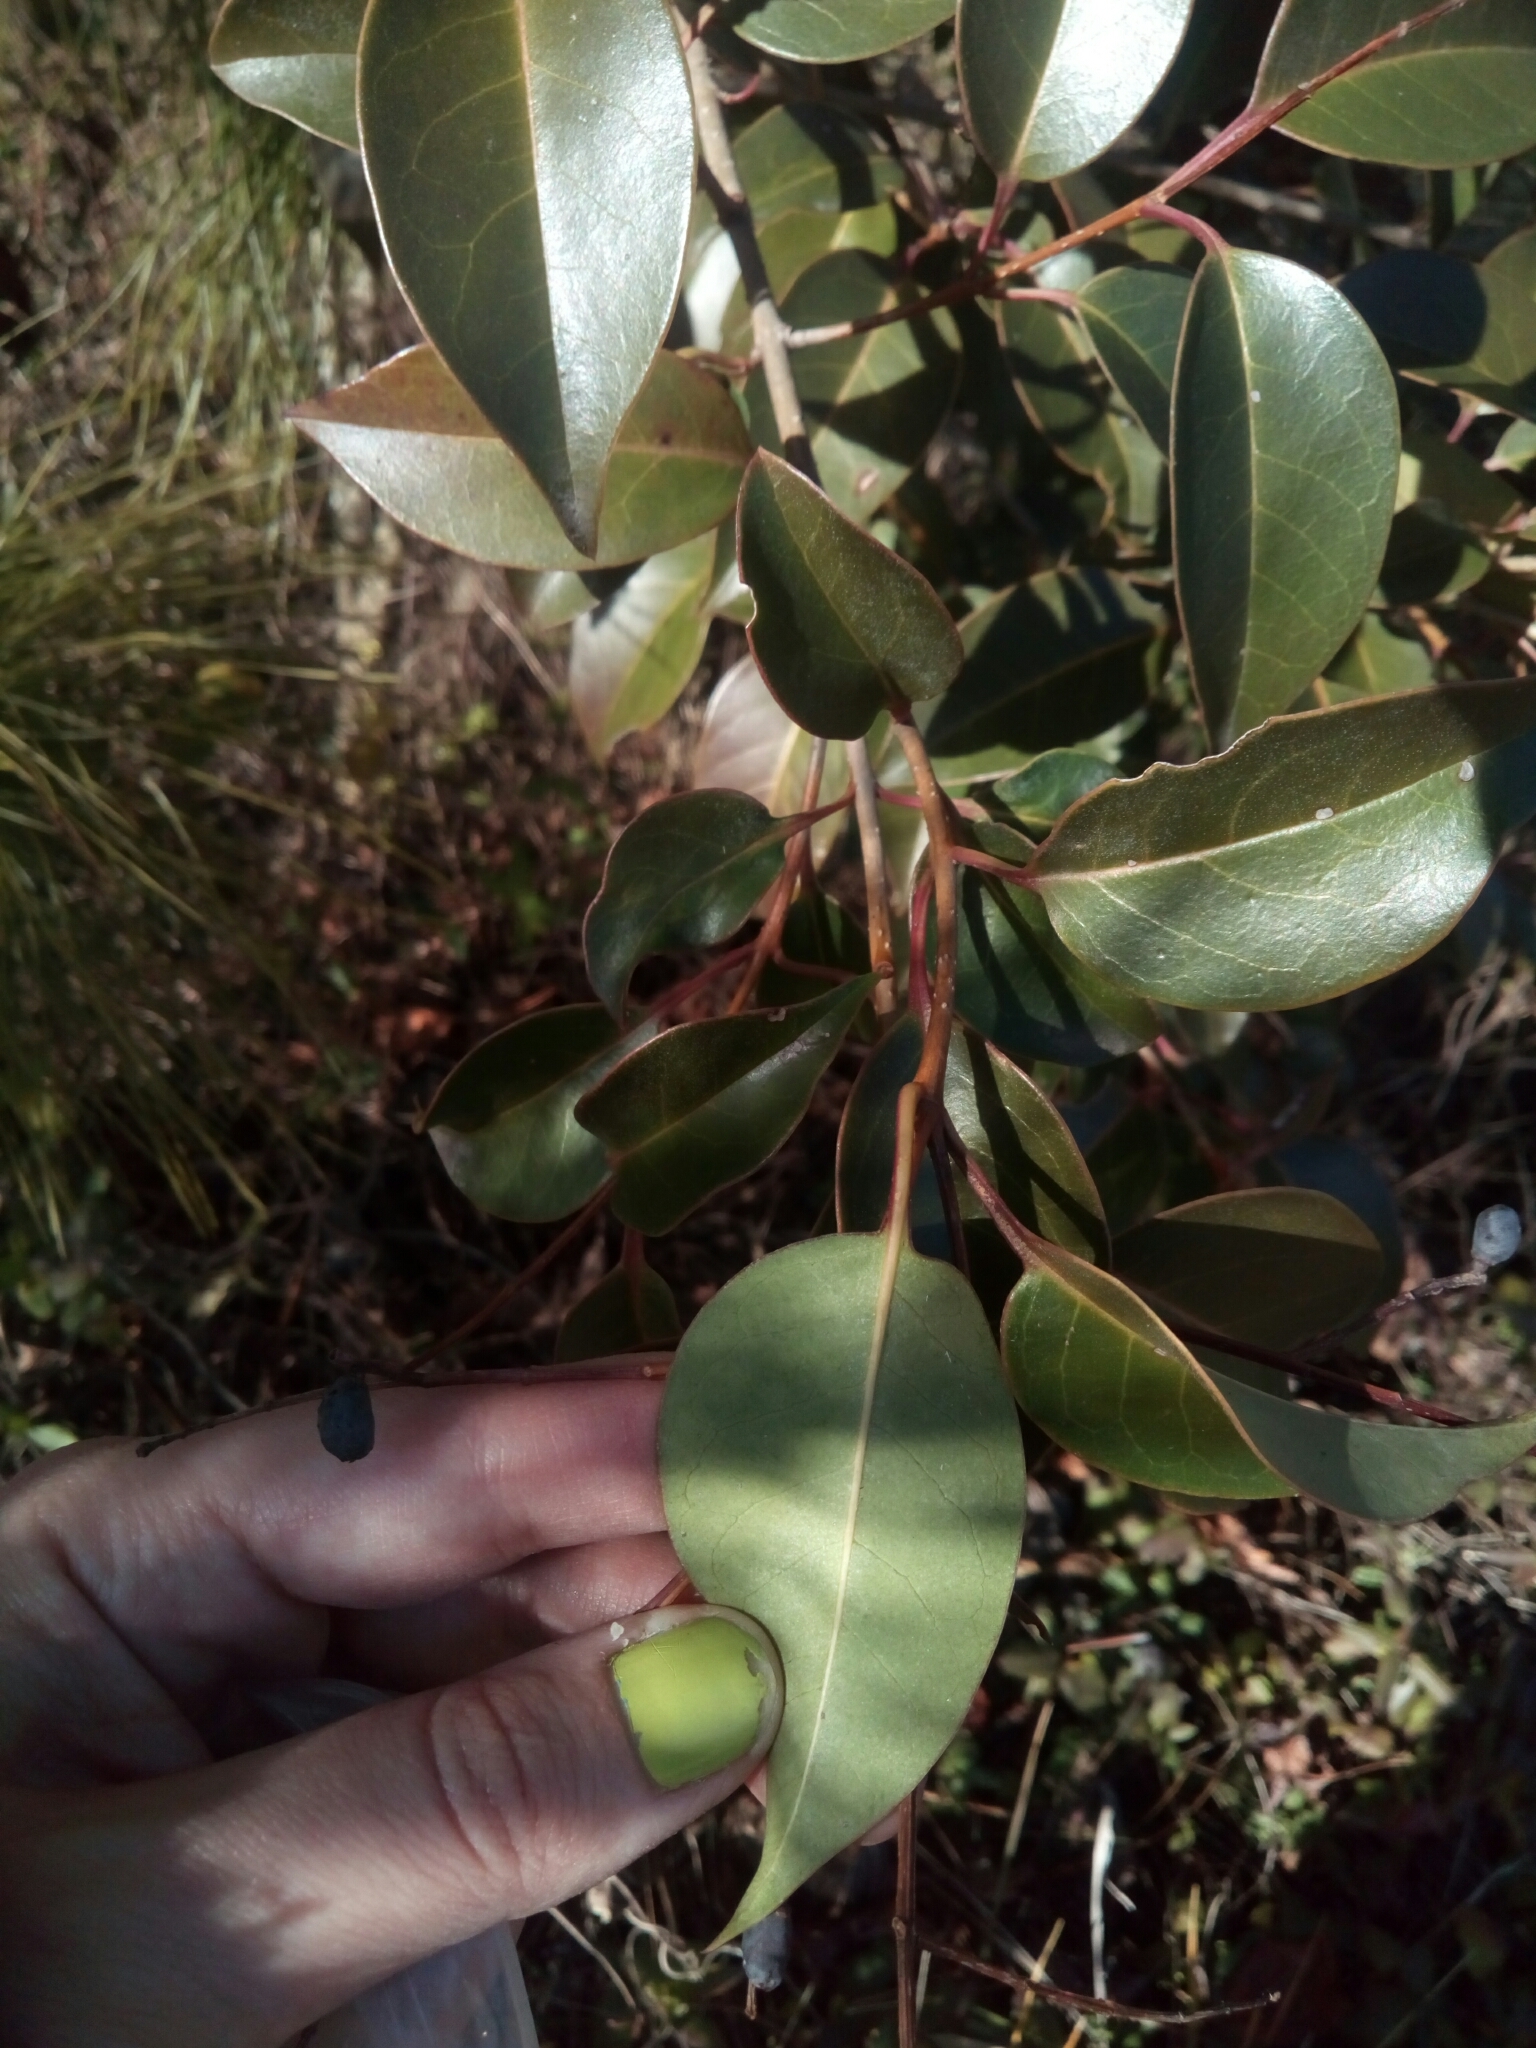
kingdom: Plantae
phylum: Tracheophyta
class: Magnoliopsida
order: Lamiales
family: Oleaceae
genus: Ligustrum
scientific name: Ligustrum lucidum
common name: Glossy privet
